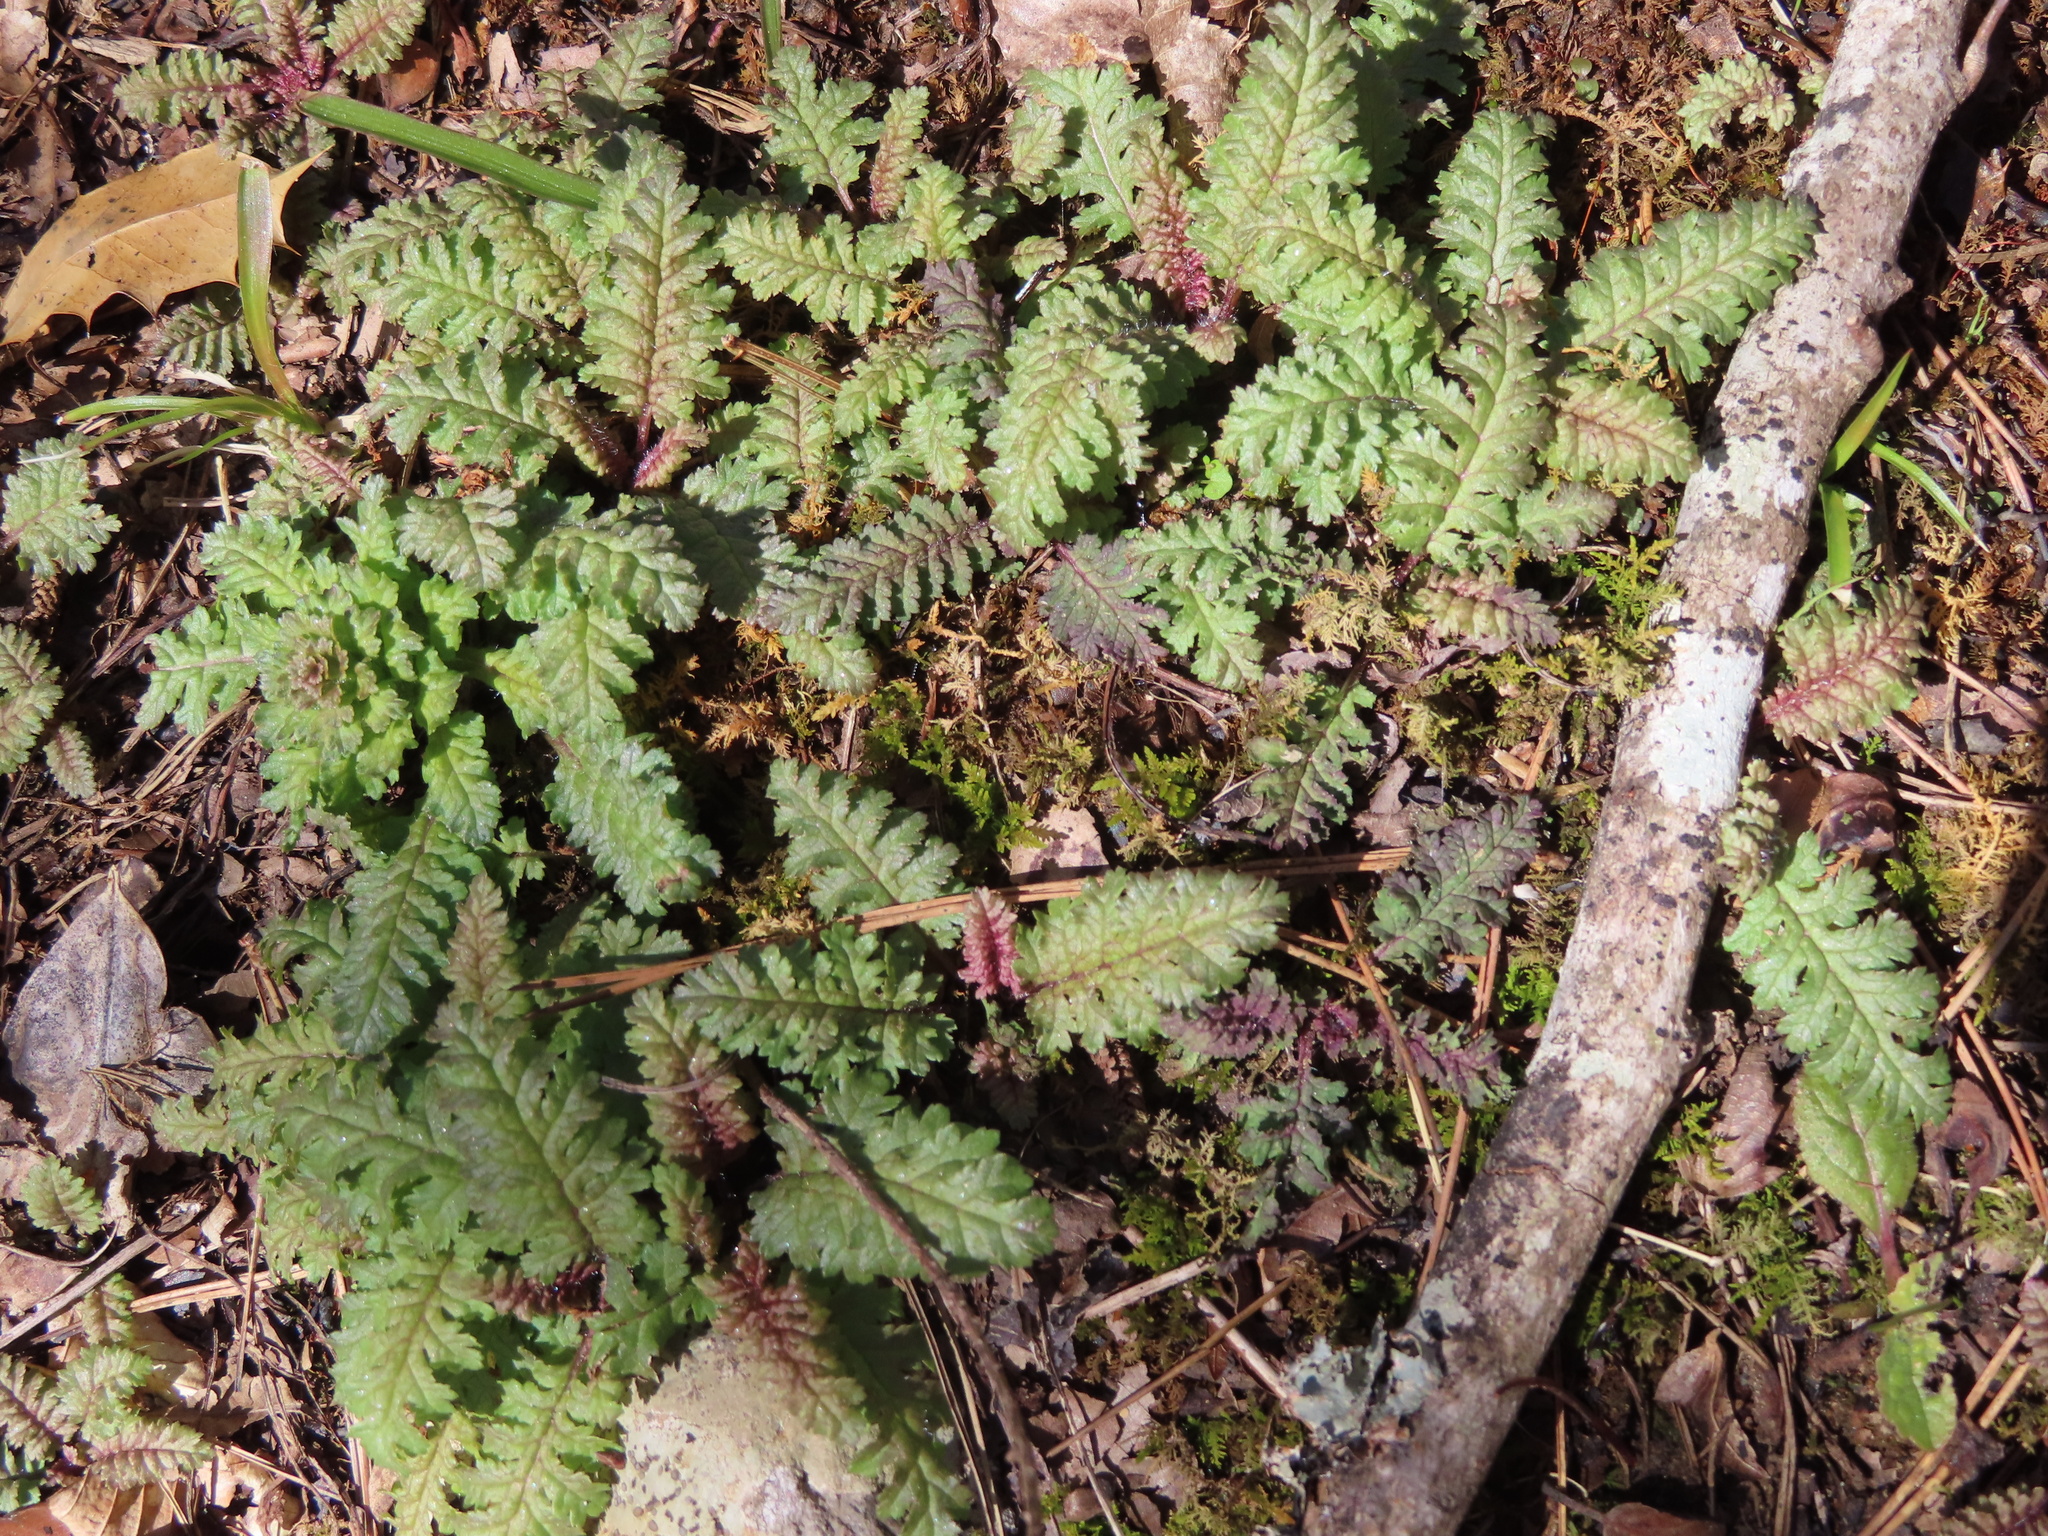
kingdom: Plantae
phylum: Tracheophyta
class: Magnoliopsida
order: Lamiales
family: Orobanchaceae
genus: Pedicularis
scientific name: Pedicularis canadensis
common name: Early lousewort
